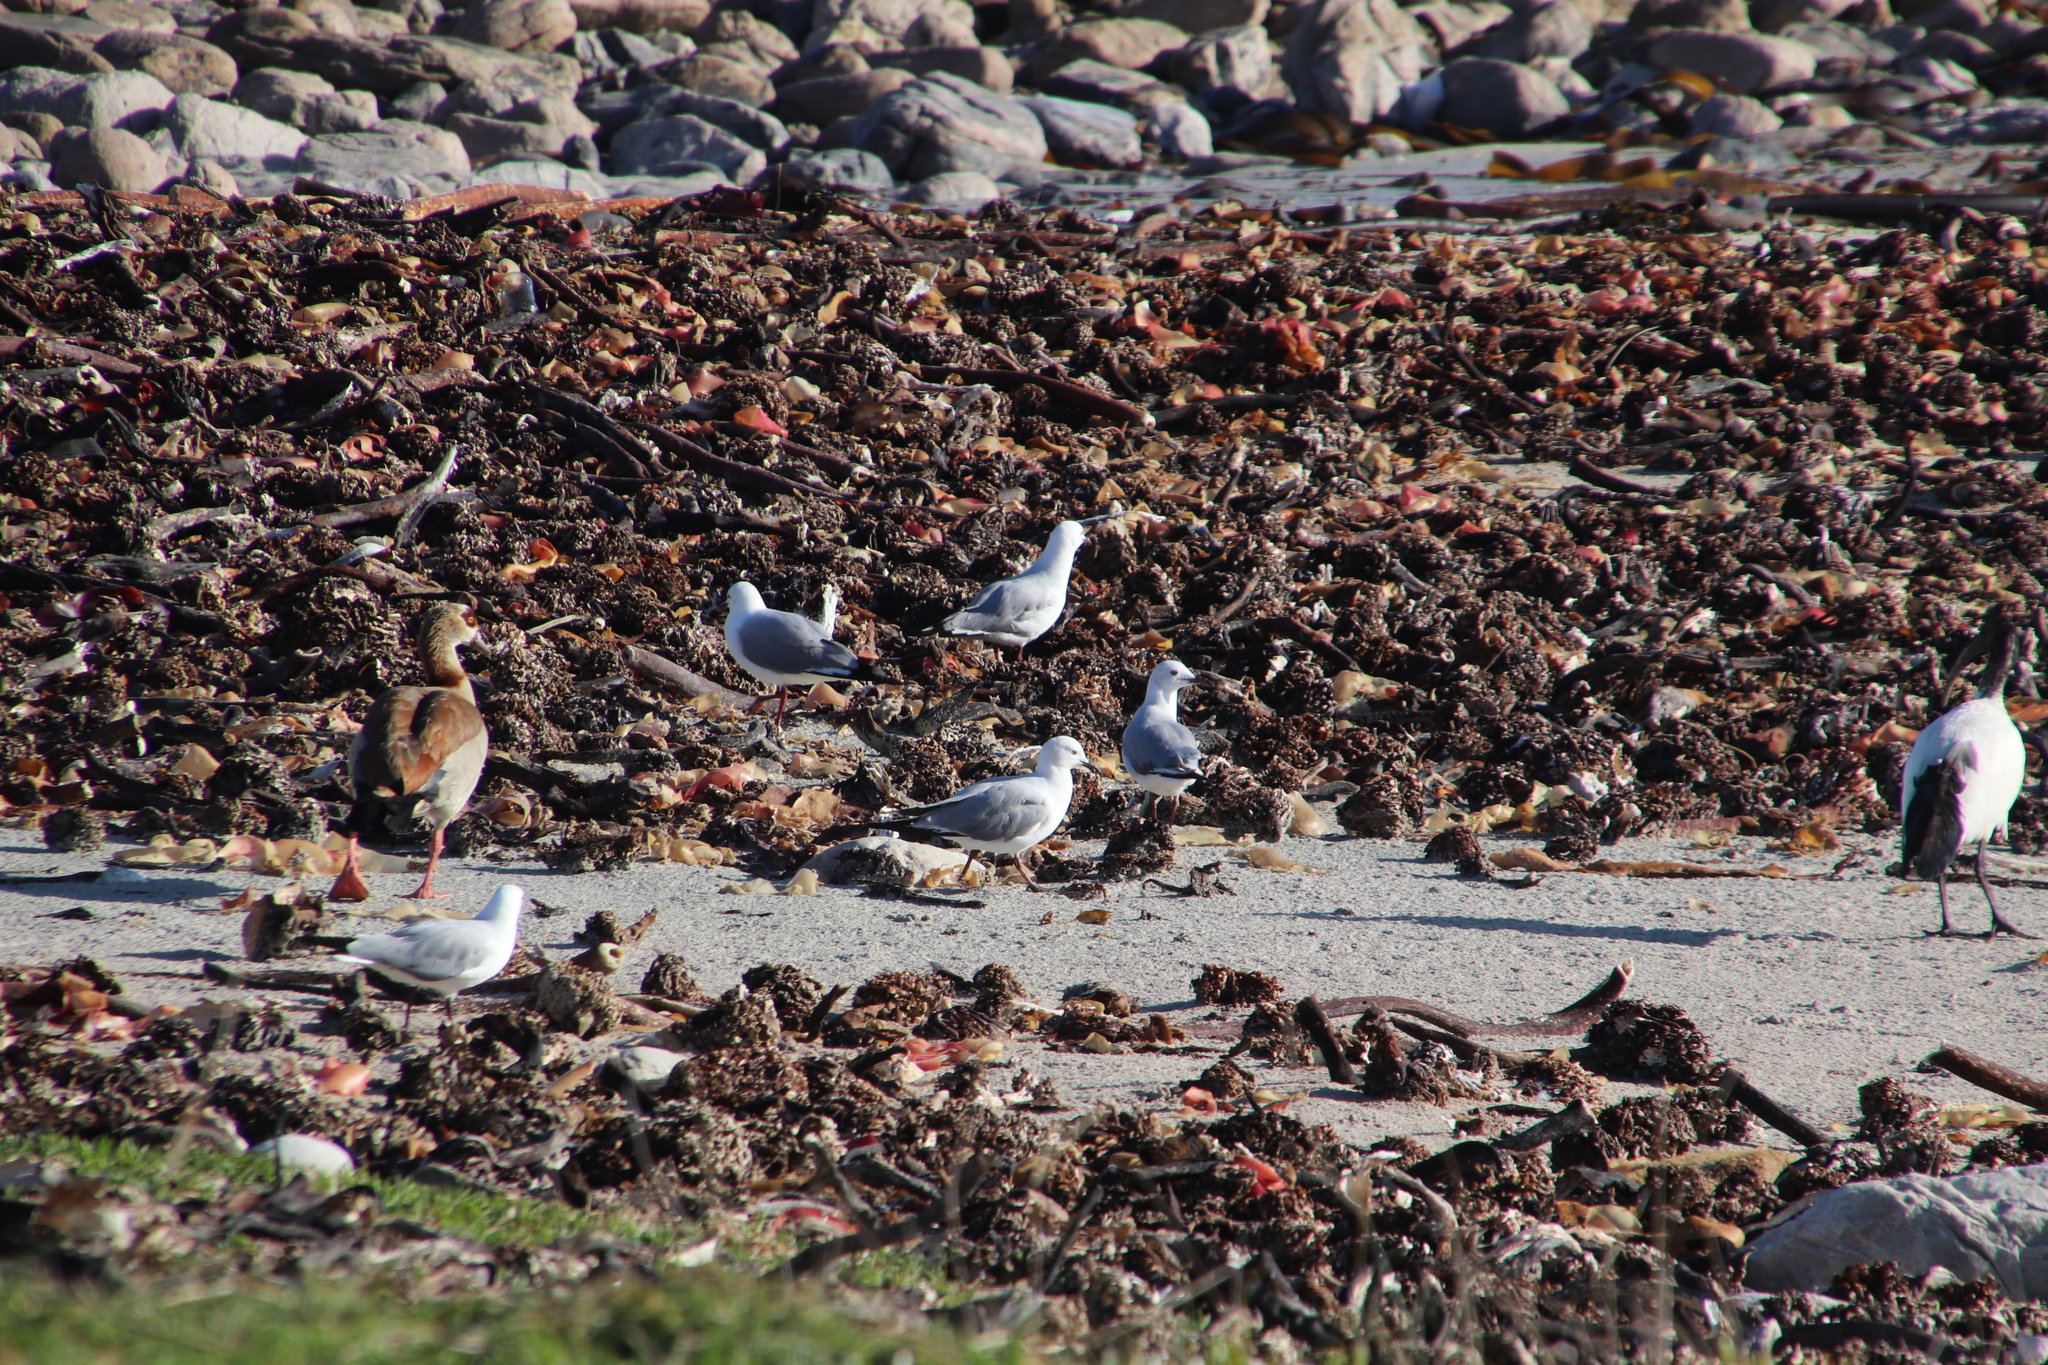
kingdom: Animalia
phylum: Chordata
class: Aves
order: Charadriiformes
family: Laridae
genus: Chroicocephalus
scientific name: Chroicocephalus hartlaubii
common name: Hartlaub's gull
